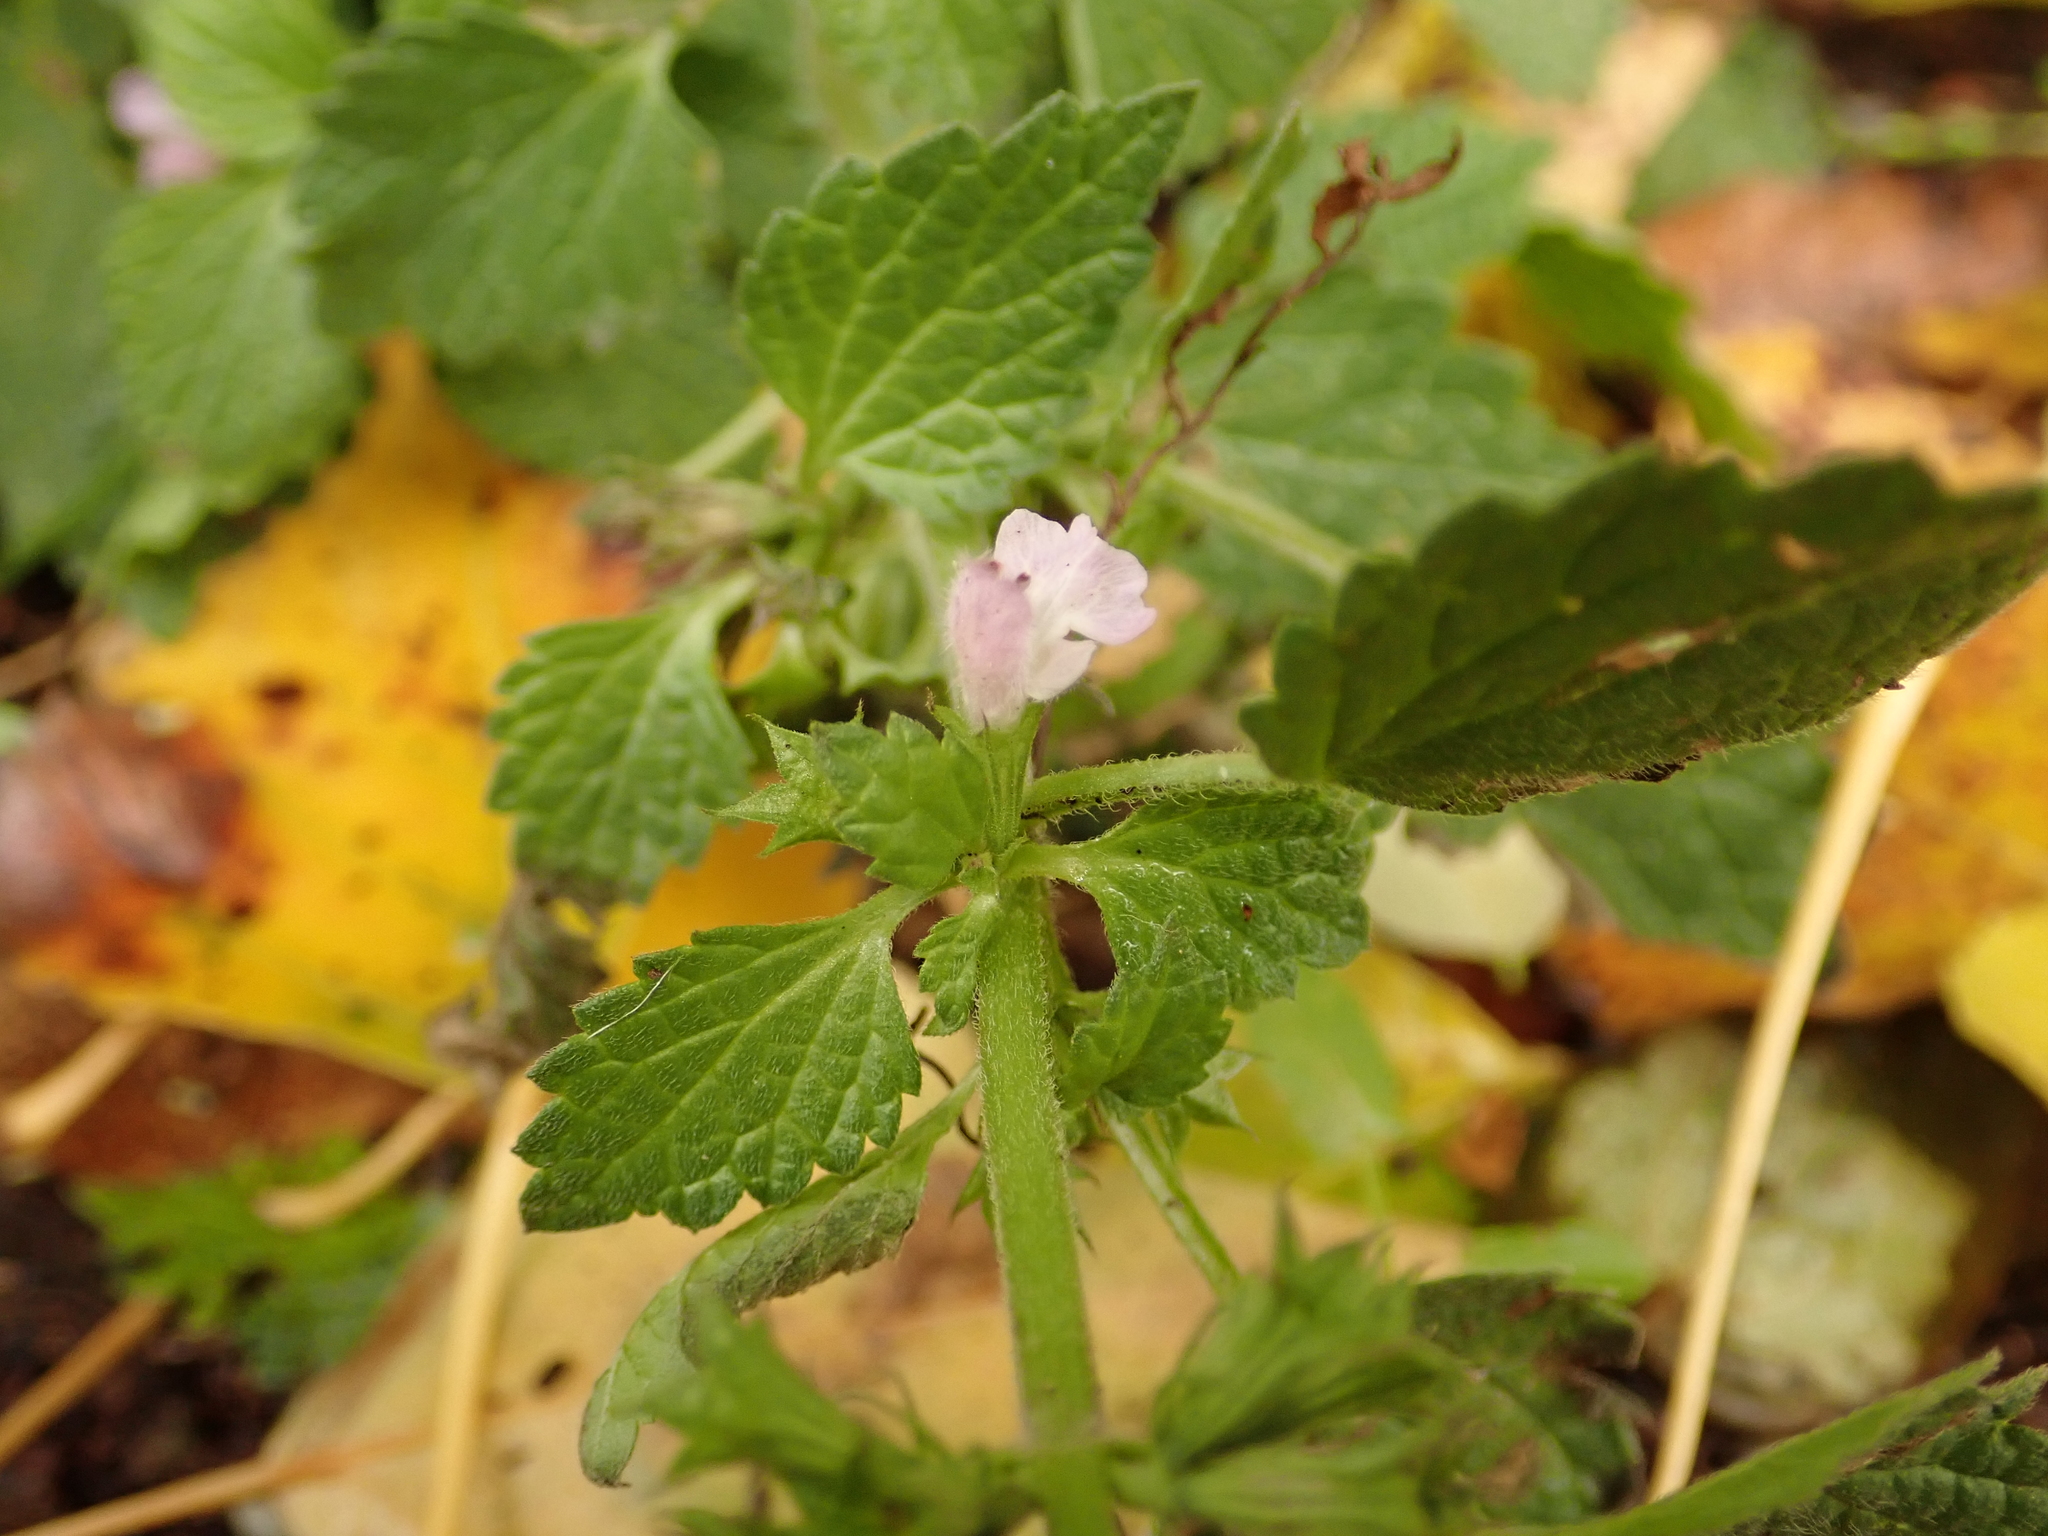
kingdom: Plantae
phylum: Tracheophyta
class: Magnoliopsida
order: Lamiales
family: Lamiaceae
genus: Ballota
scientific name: Ballota nigra
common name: Black horehound
